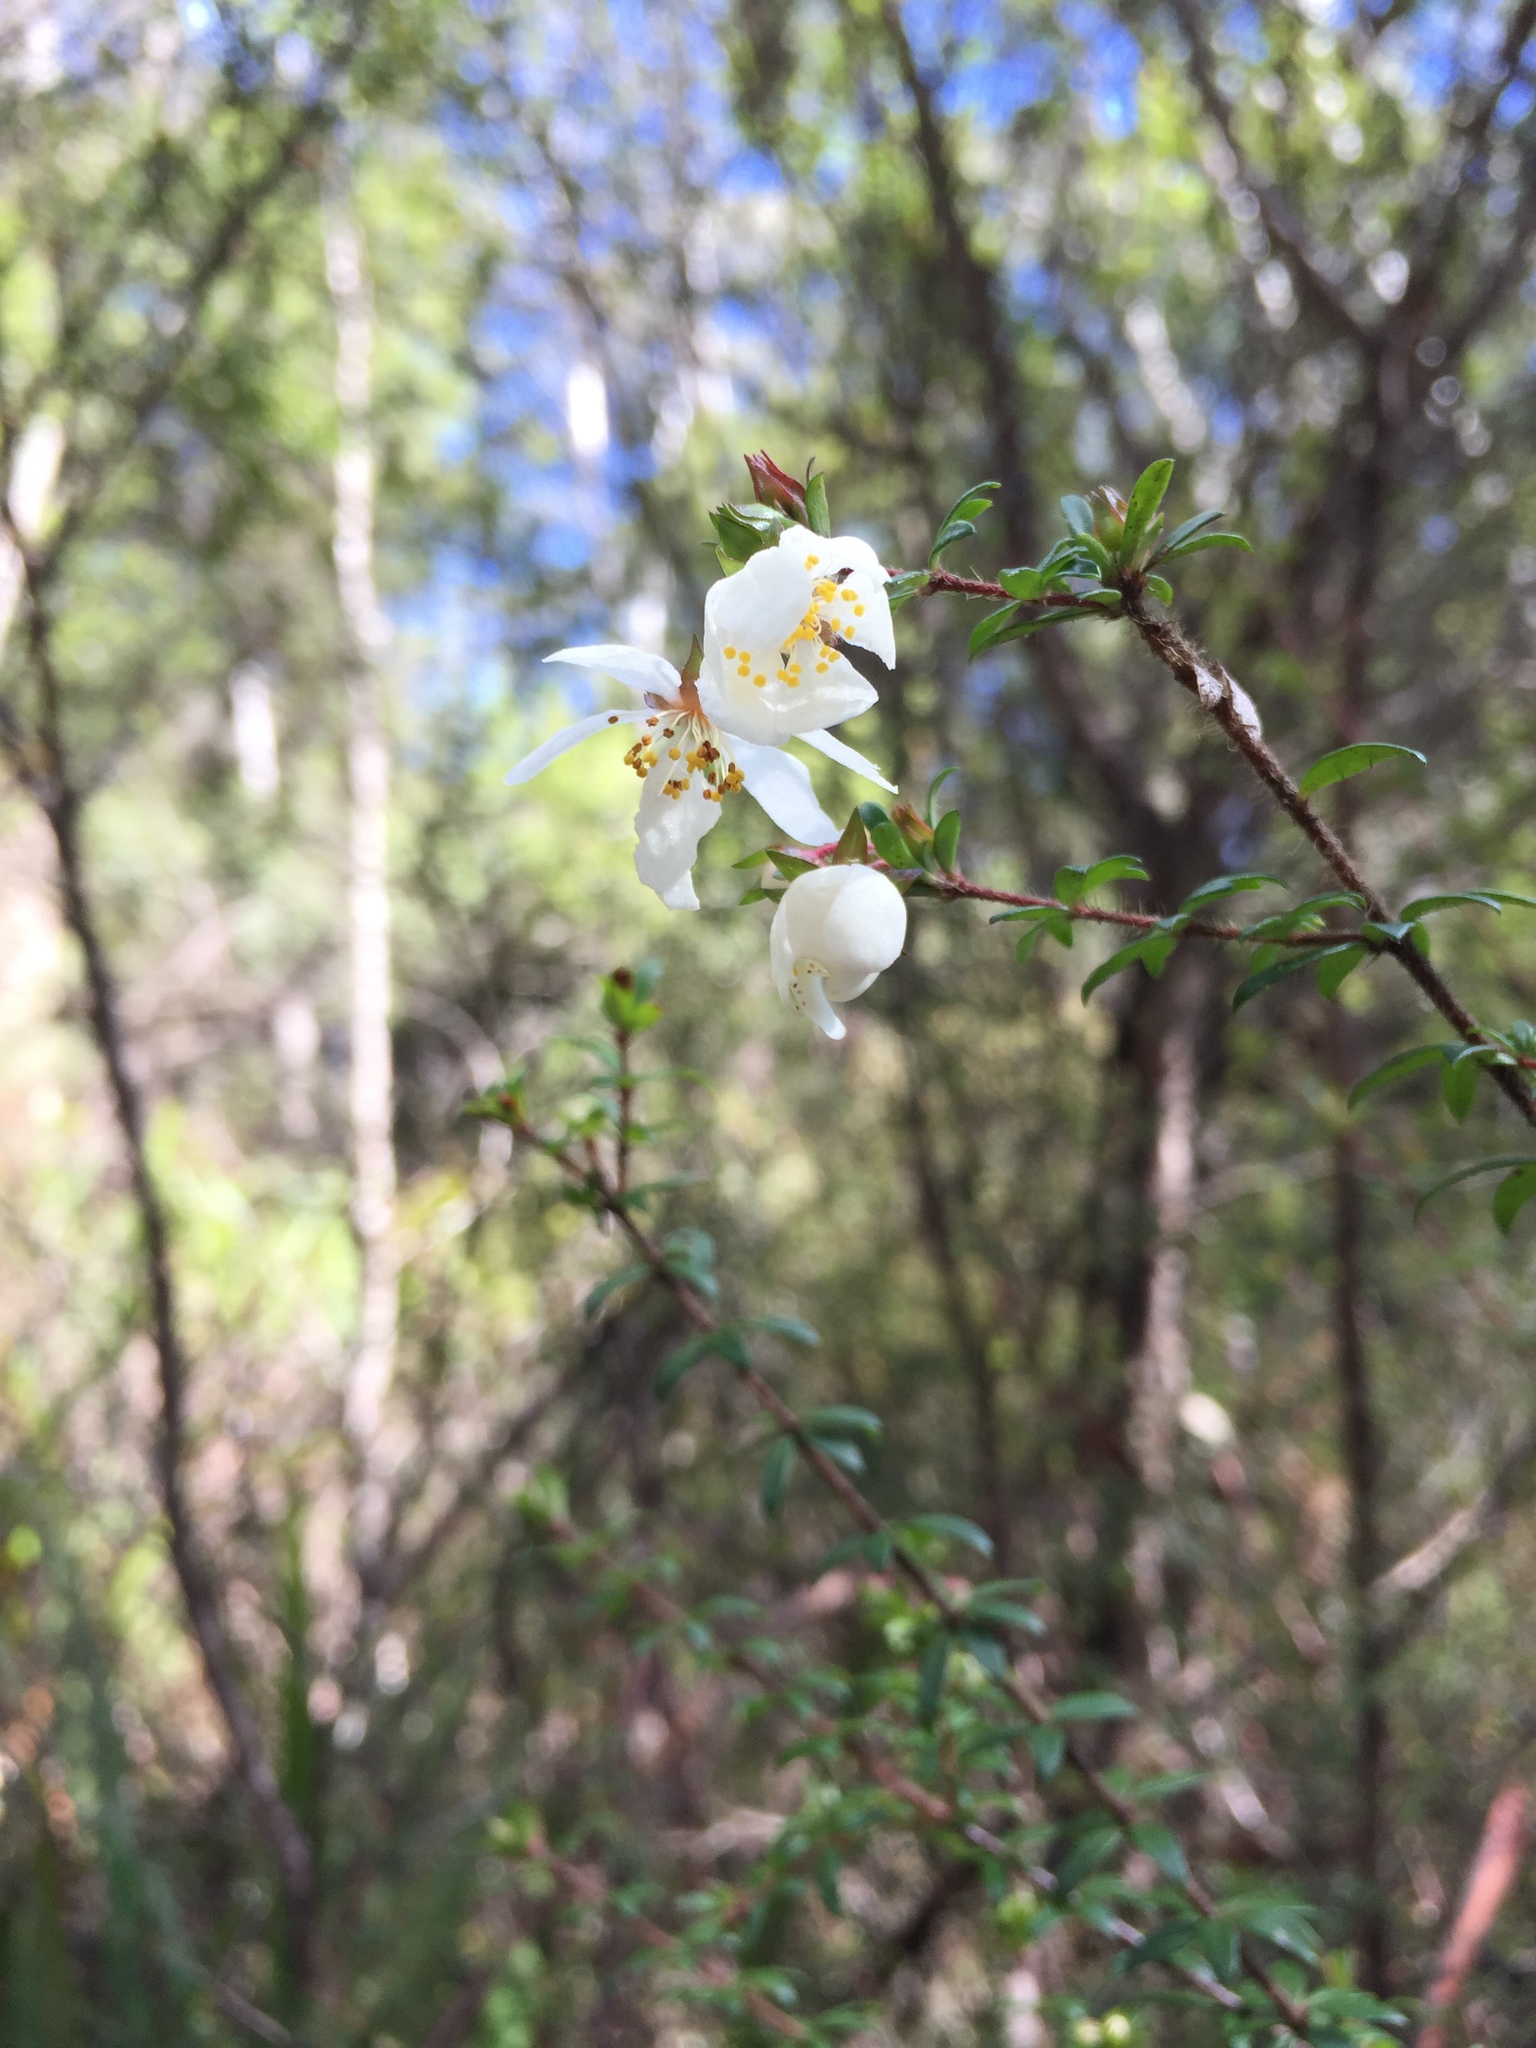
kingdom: Plantae
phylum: Tracheophyta
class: Magnoliopsida
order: Oxalidales
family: Cunoniaceae
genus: Bauera
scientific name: Bauera rubioides
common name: River-rose
